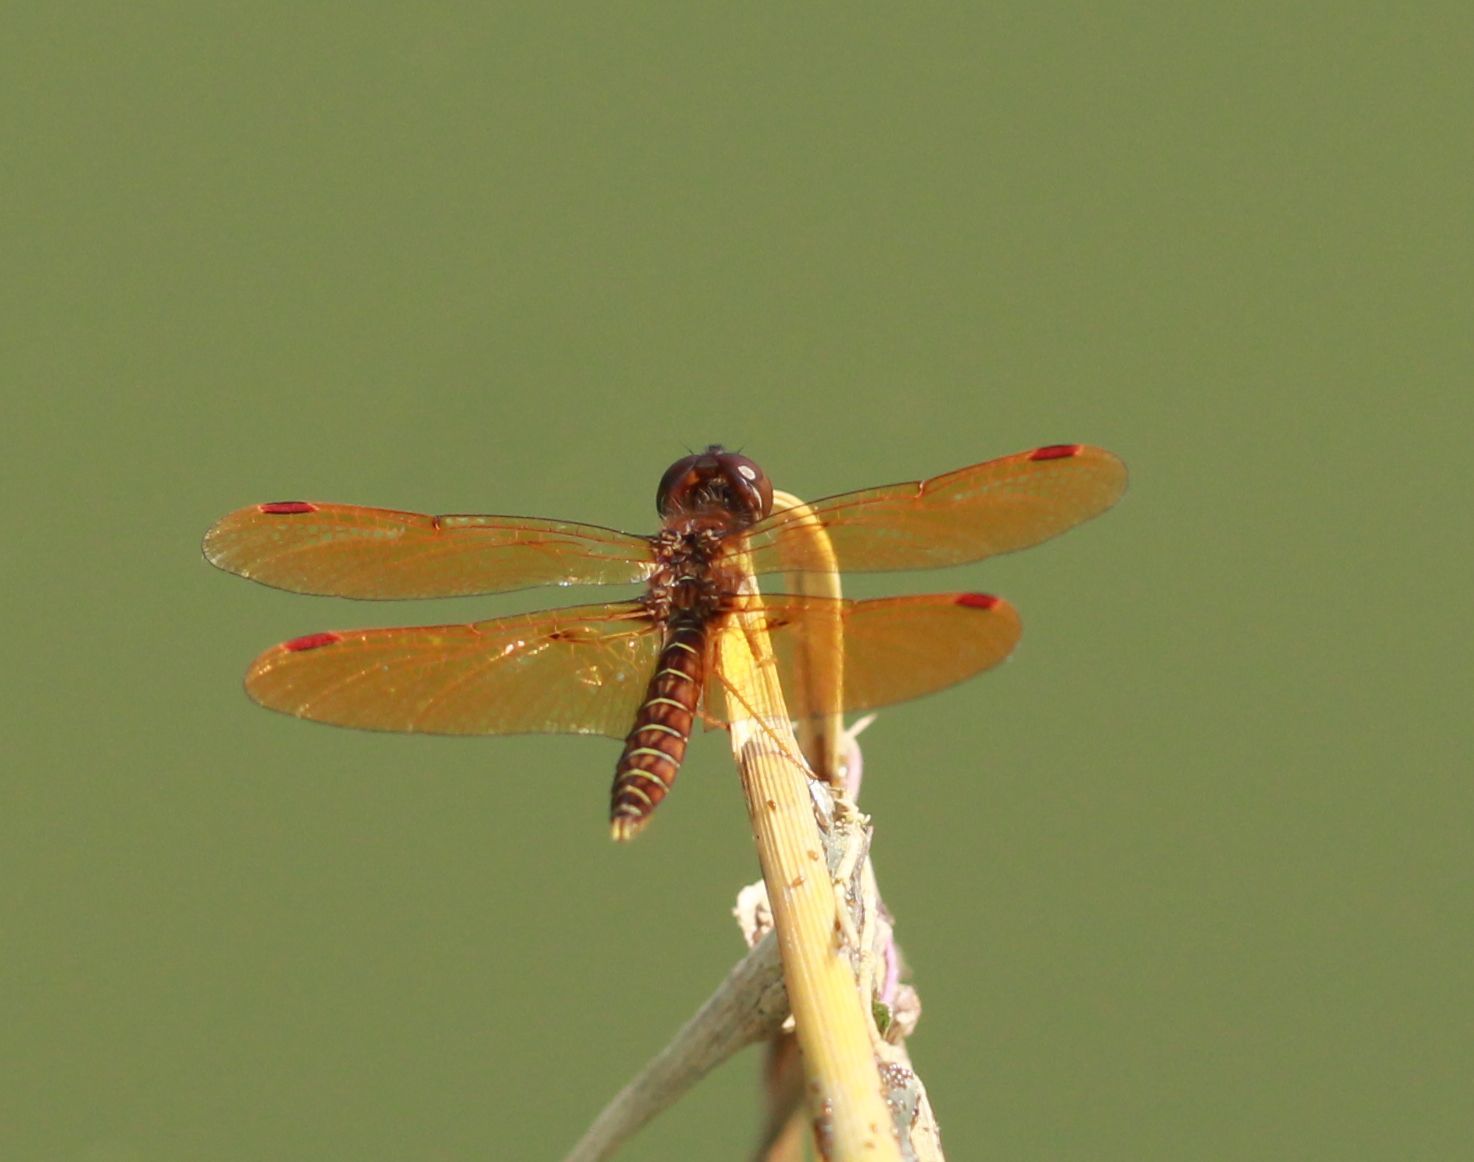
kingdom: Animalia
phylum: Arthropoda
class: Insecta
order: Odonata
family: Libellulidae
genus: Perithemis
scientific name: Perithemis tenera
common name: Eastern amberwing
